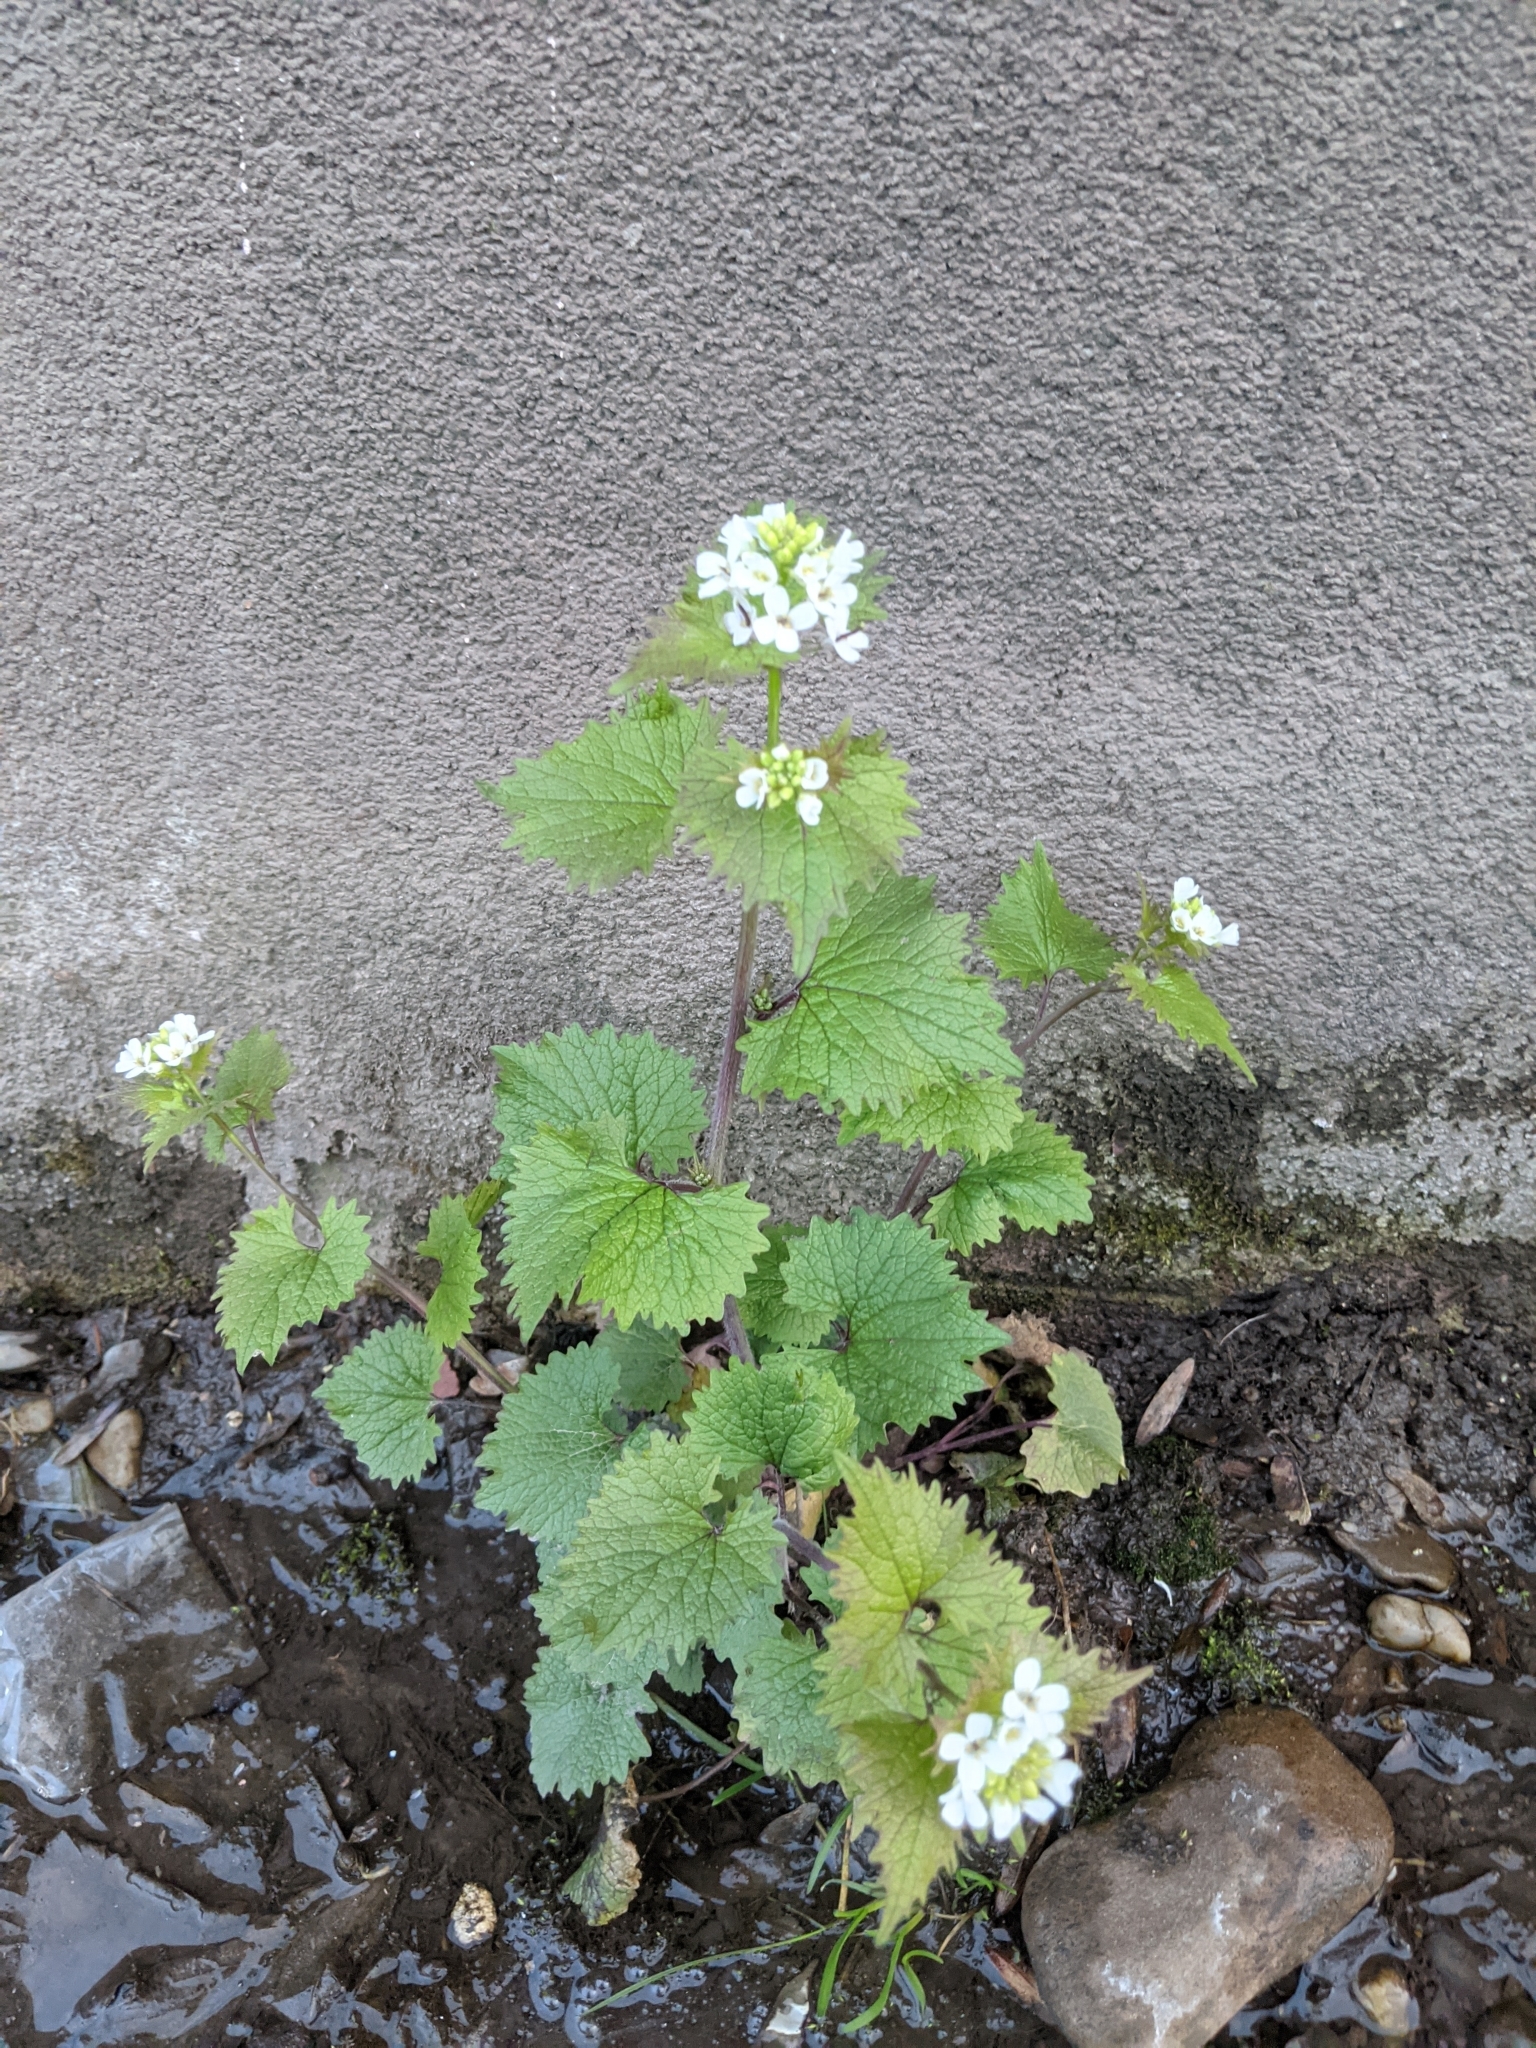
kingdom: Plantae
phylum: Tracheophyta
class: Magnoliopsida
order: Brassicales
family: Brassicaceae
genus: Alliaria
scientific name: Alliaria petiolata
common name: Garlic mustard
